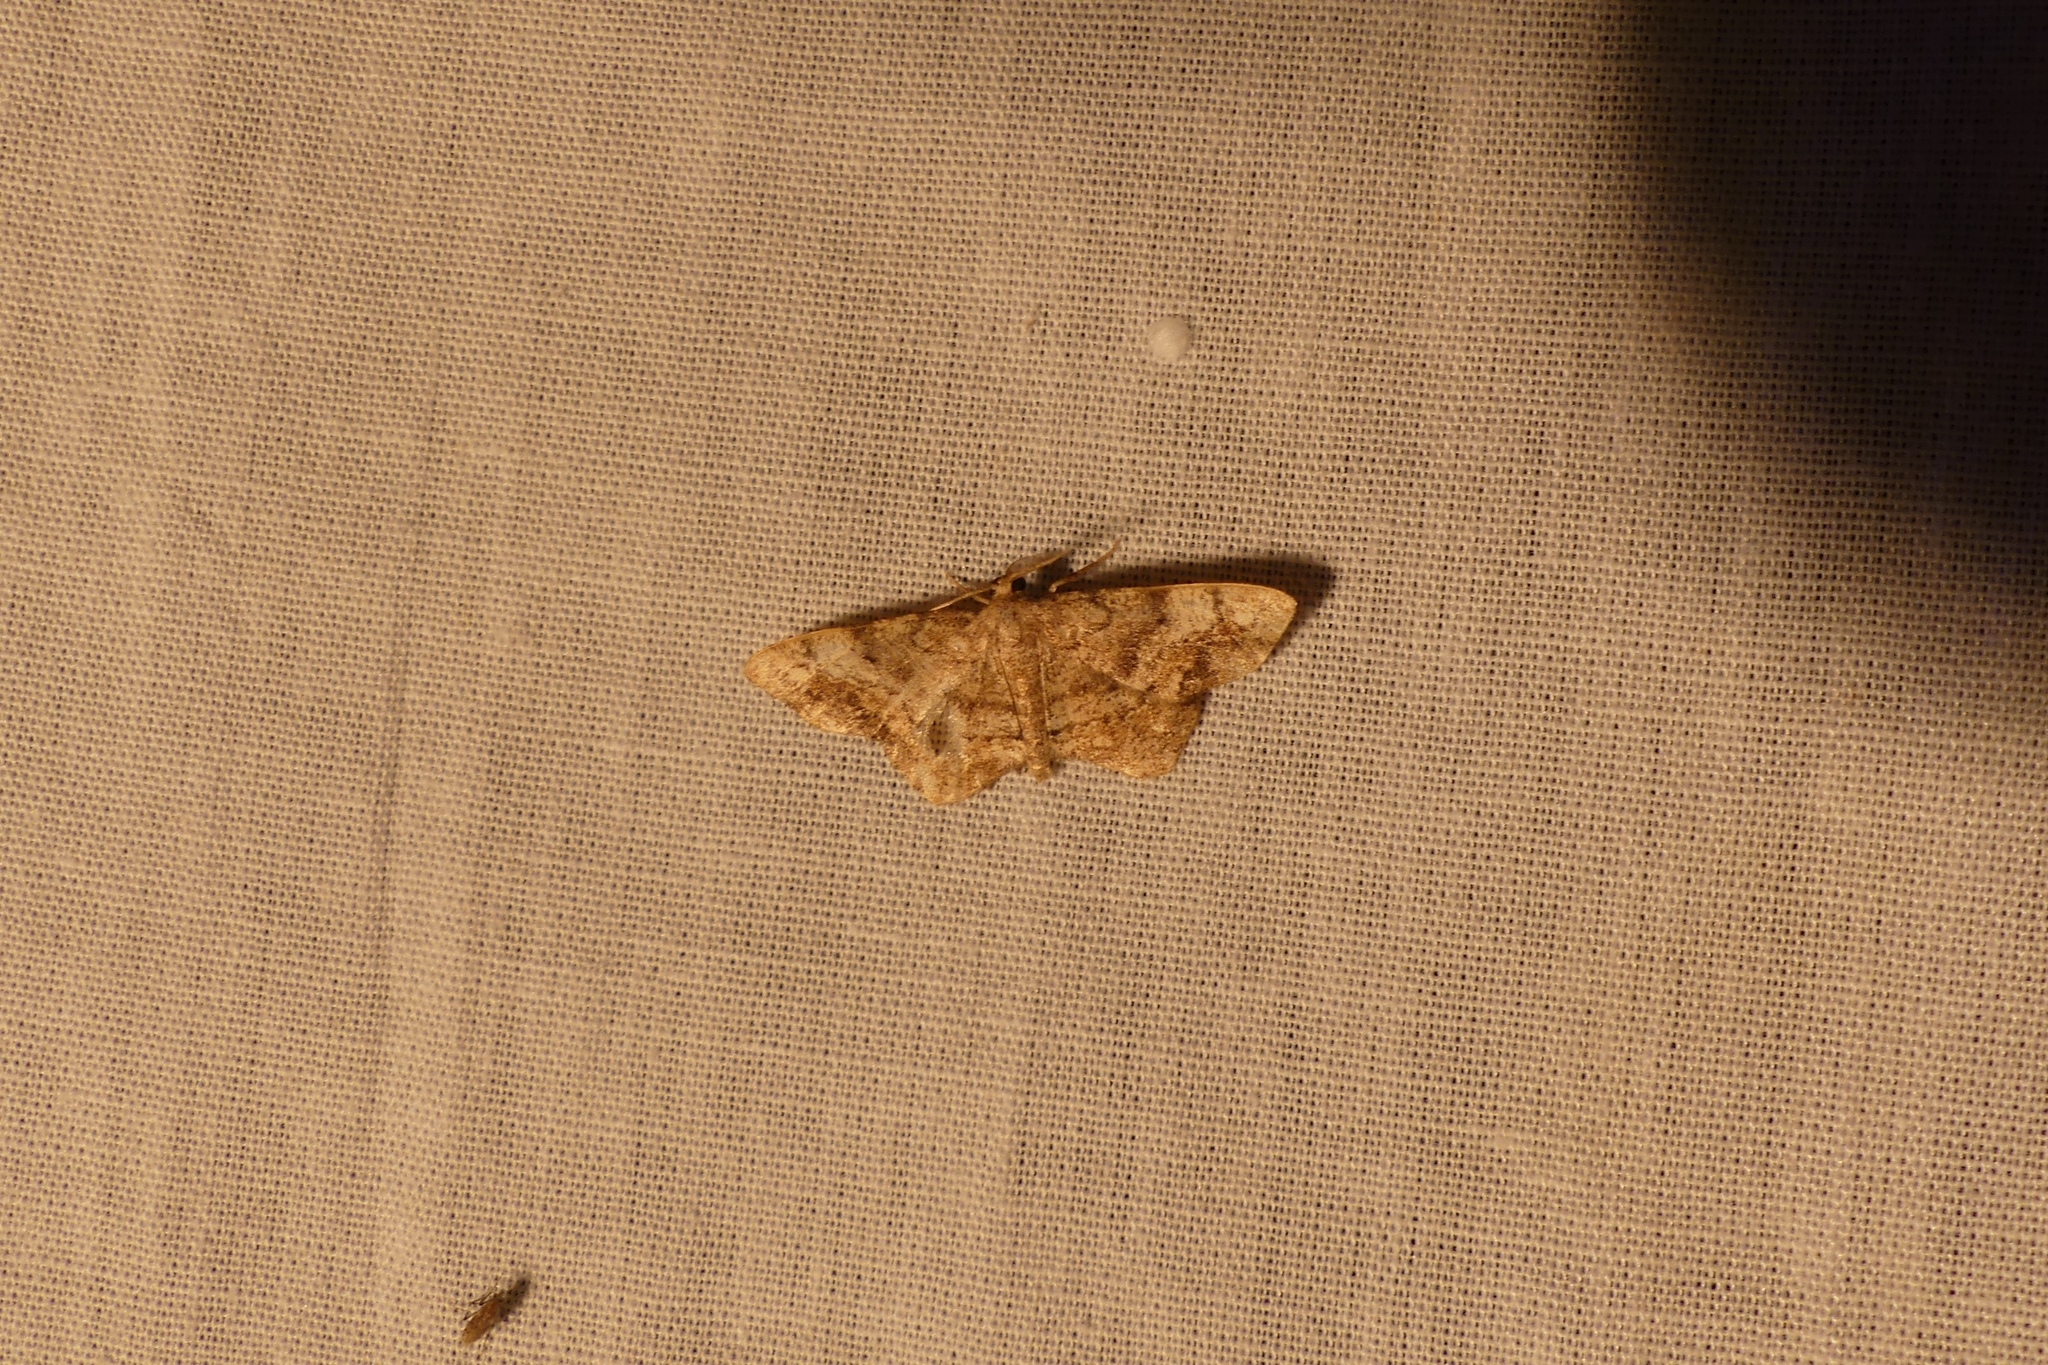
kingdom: Animalia
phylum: Arthropoda
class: Insecta
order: Lepidoptera
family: Geometridae
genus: Hypagyrtis
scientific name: Hypagyrtis unipunctata
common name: One-spotted variant
